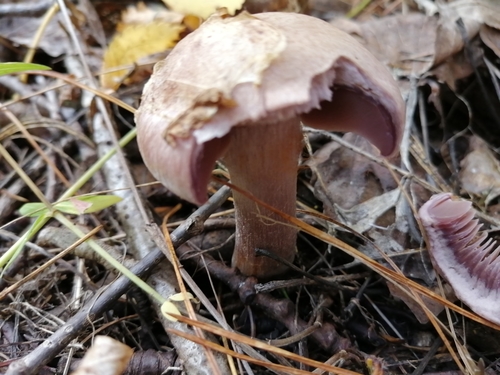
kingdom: Fungi
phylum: Basidiomycota
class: Agaricomycetes
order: Agaricales
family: Cortinariaceae
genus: Cortinarius
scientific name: Cortinarius
